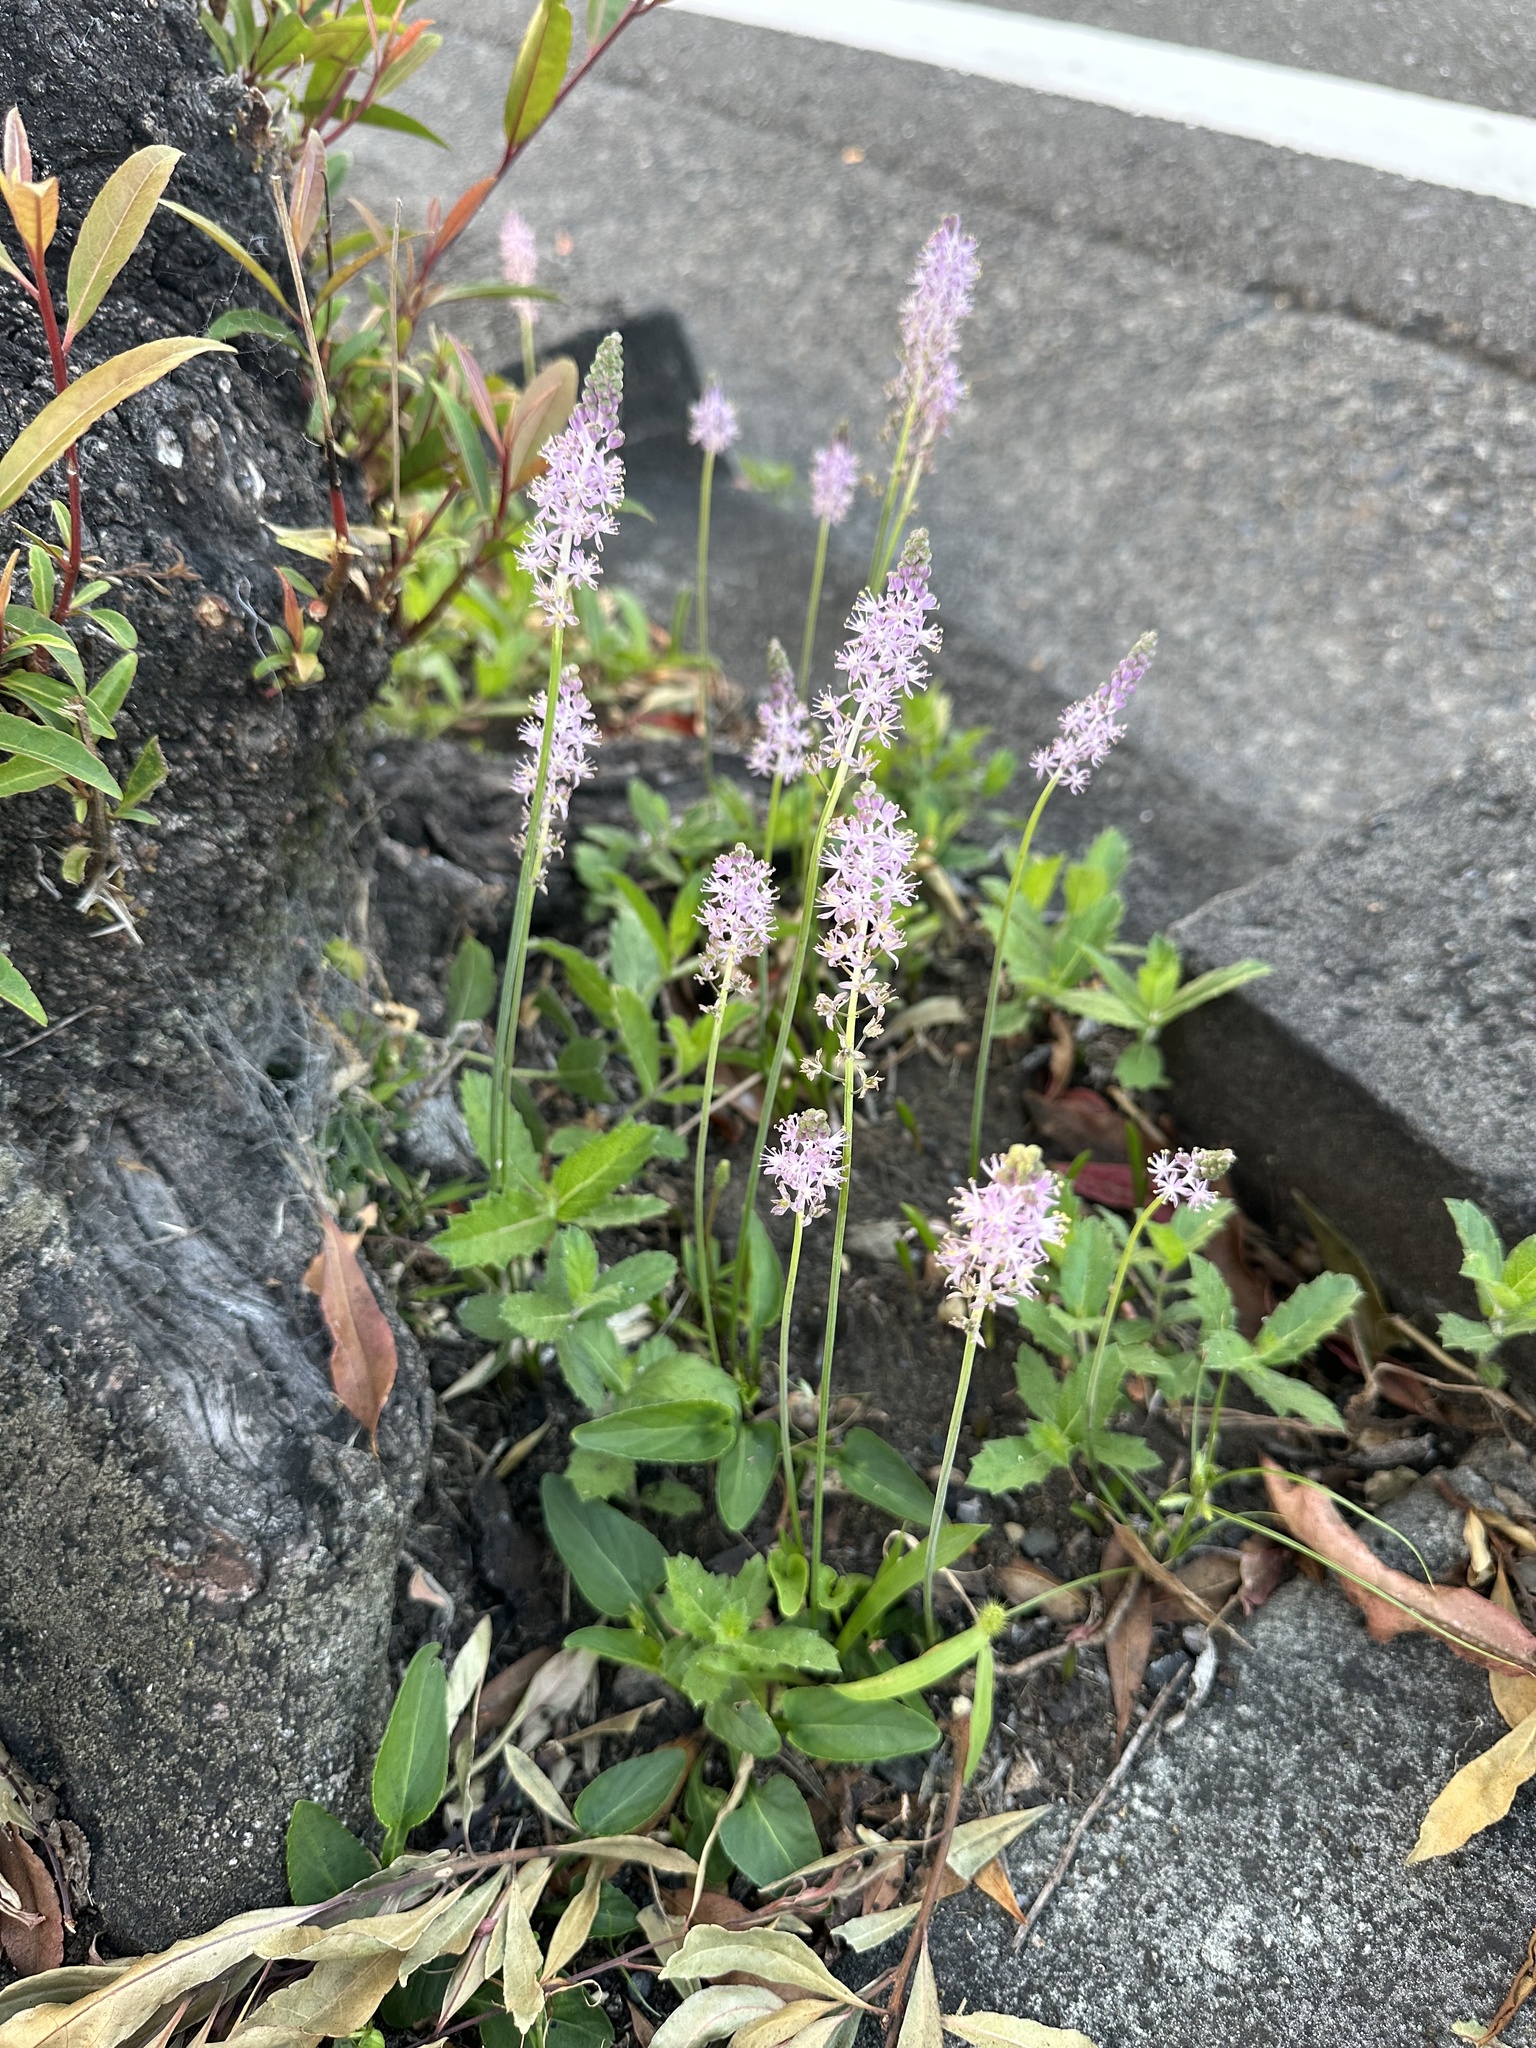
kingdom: Plantae
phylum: Tracheophyta
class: Liliopsida
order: Asparagales
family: Asparagaceae
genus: Barnardia
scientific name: Barnardia japonica
